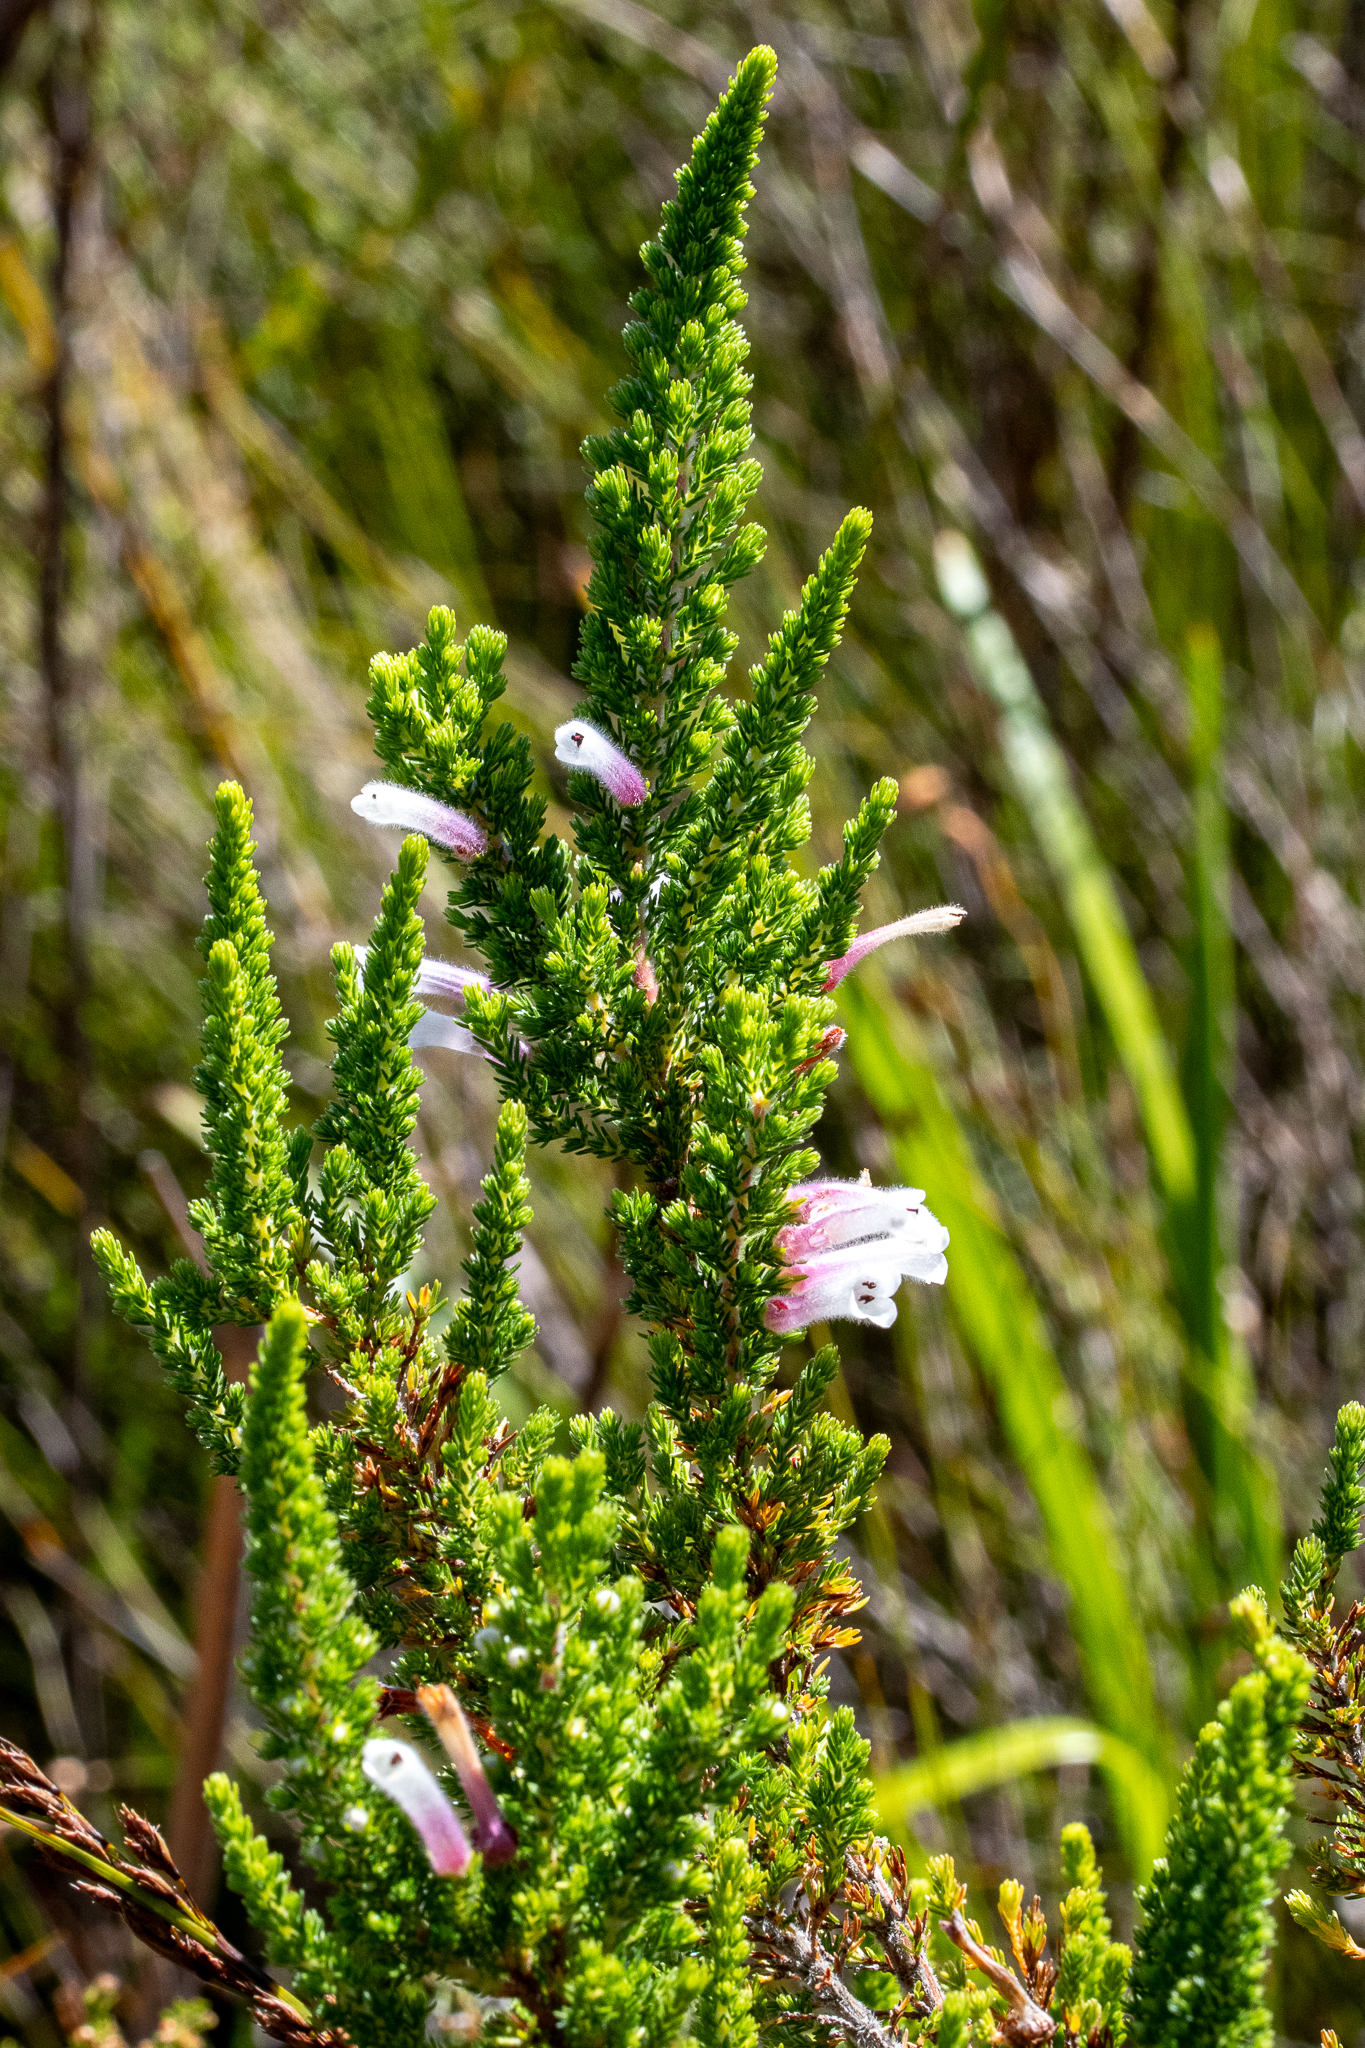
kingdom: Plantae
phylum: Tracheophyta
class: Magnoliopsida
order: Ericales
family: Ericaceae
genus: Erica
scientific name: Erica perspicua
